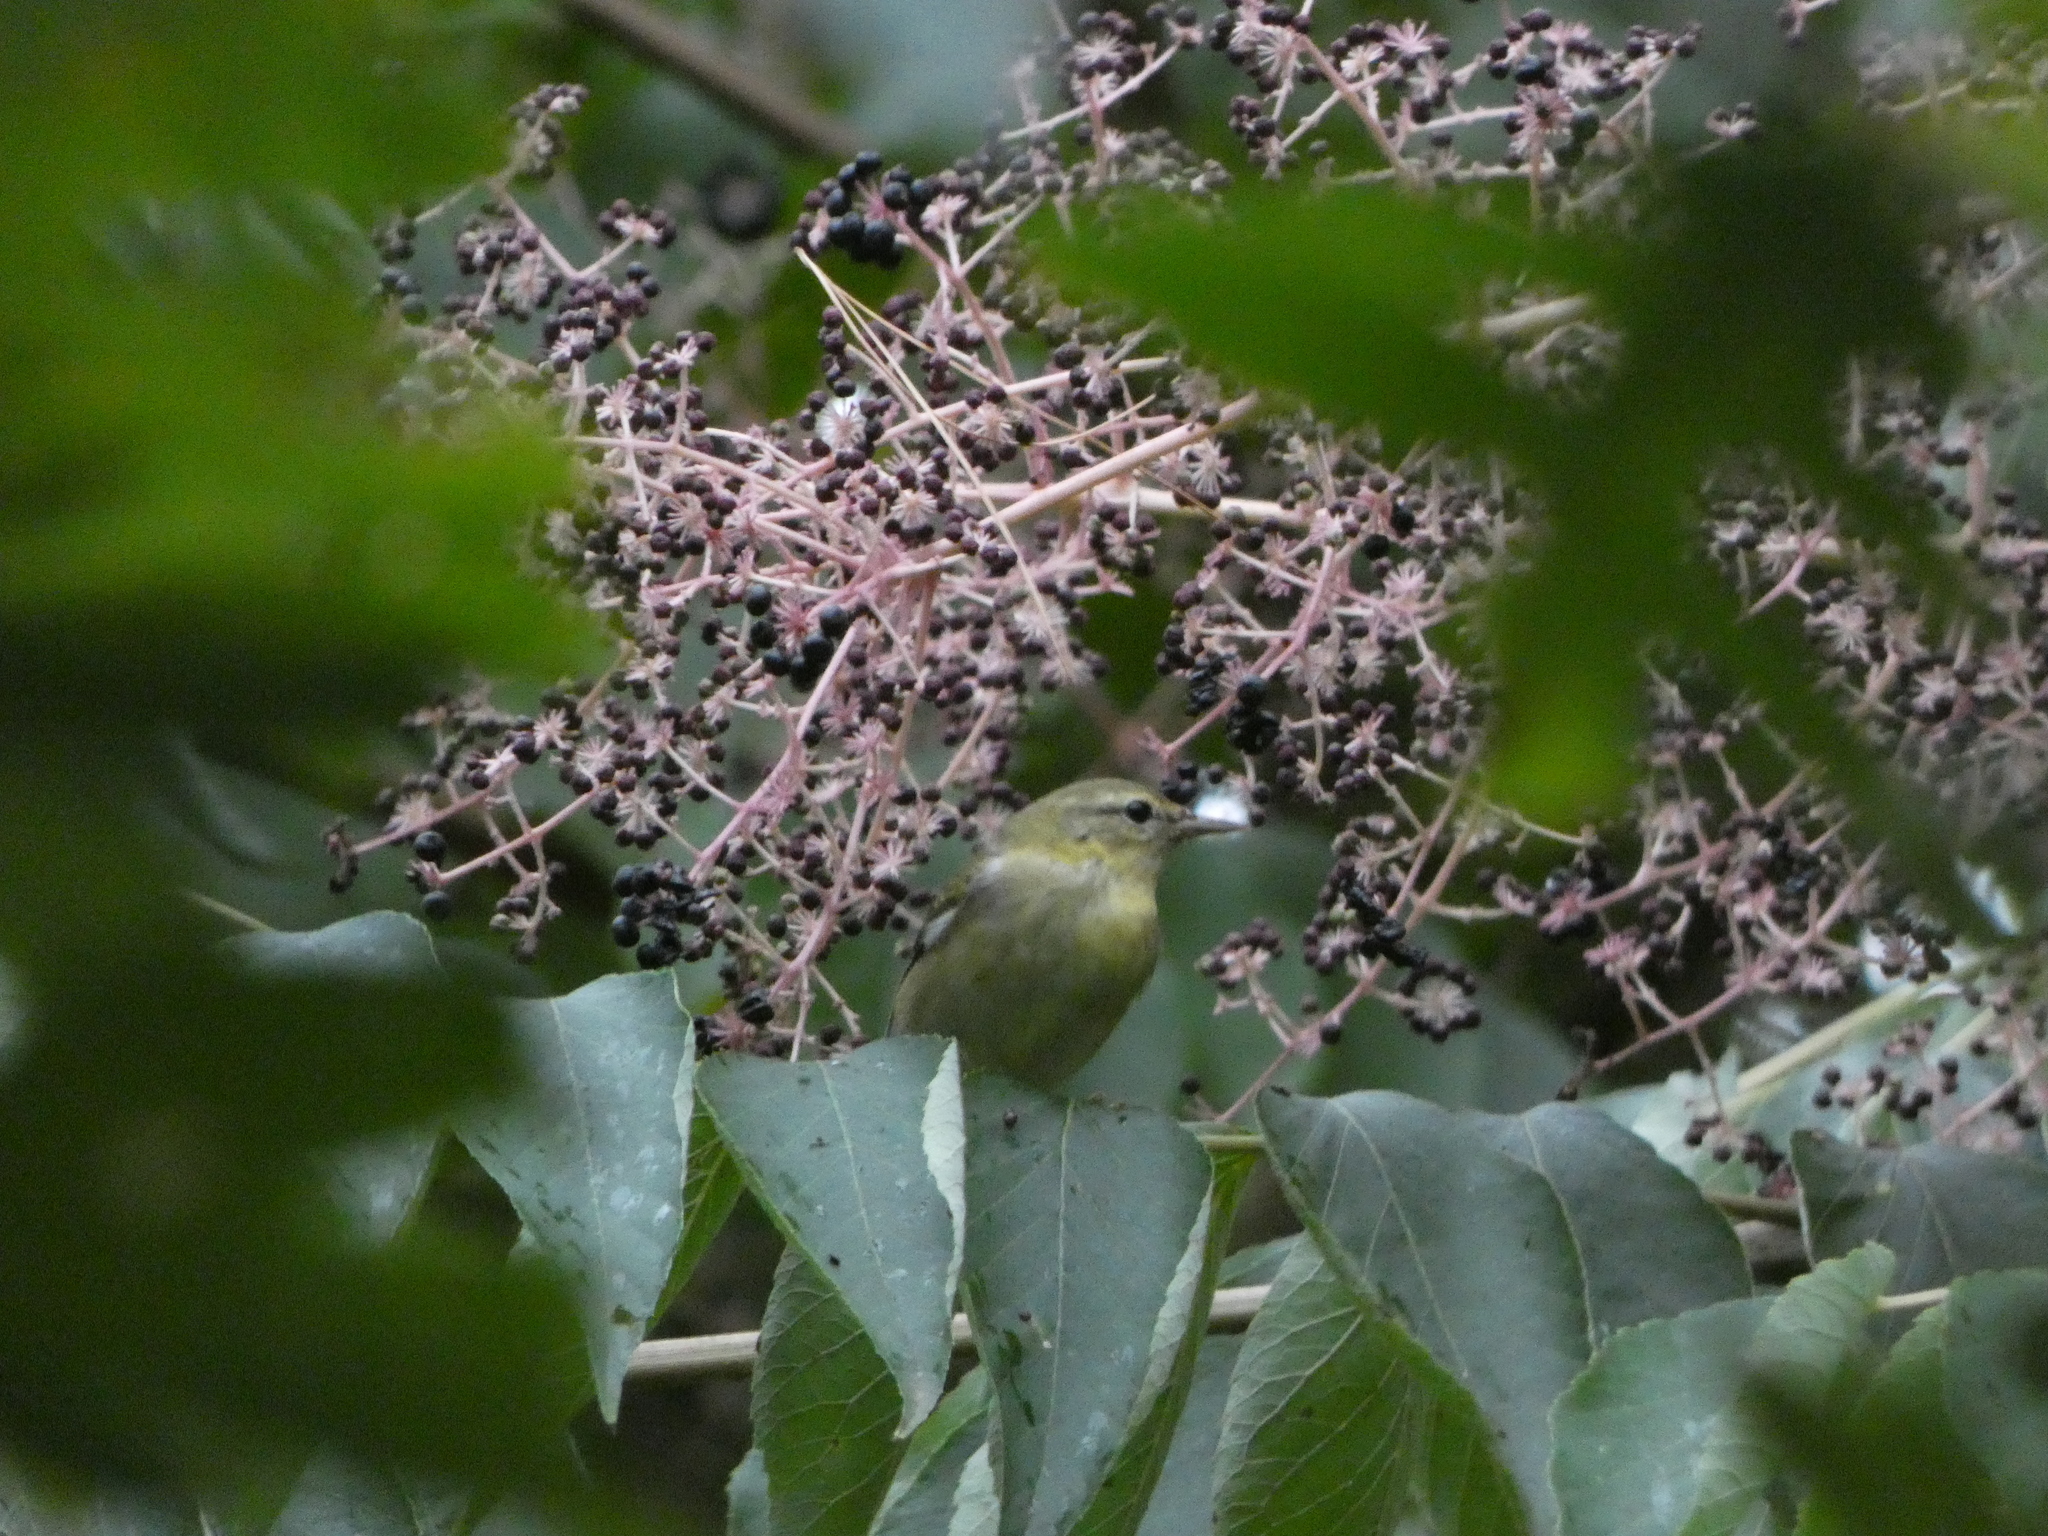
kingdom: Plantae
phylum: Tracheophyta
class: Magnoliopsida
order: Apiales
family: Araliaceae
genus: Aralia
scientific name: Aralia elata
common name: Japanese angelica-tree
